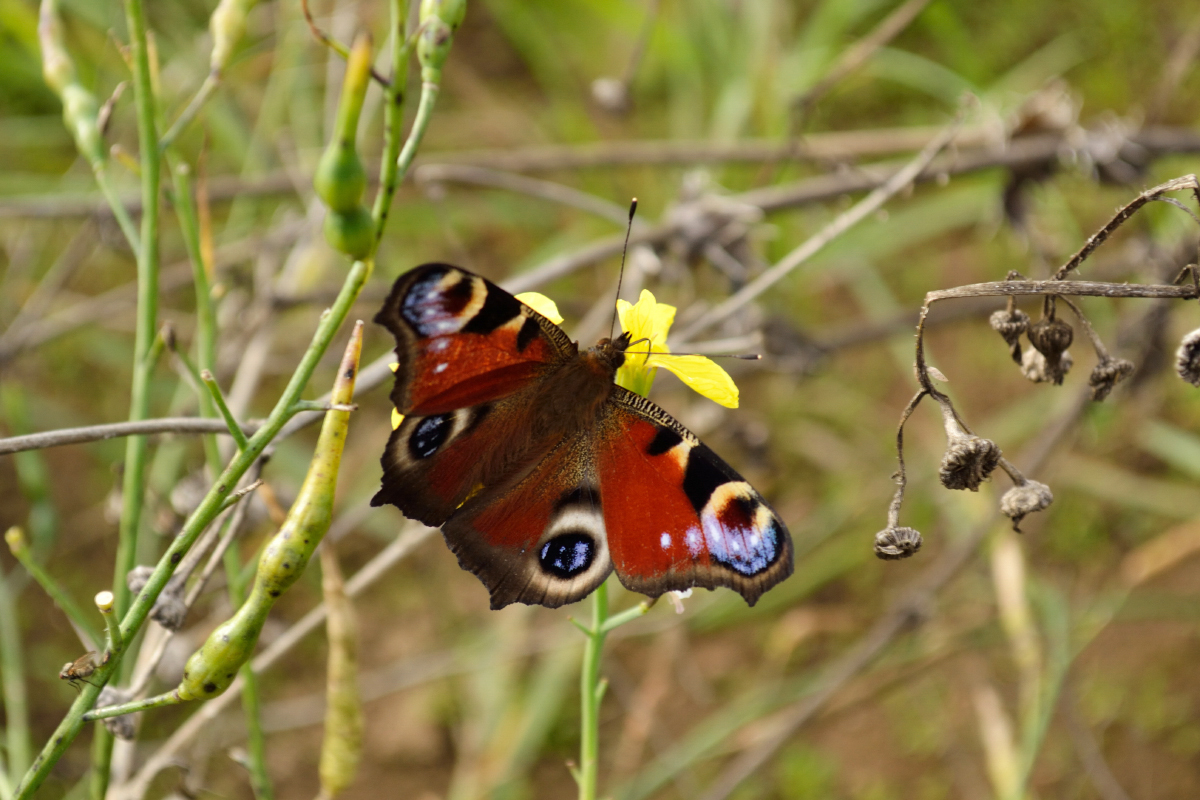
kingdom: Animalia
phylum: Arthropoda
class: Insecta
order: Lepidoptera
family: Nymphalidae
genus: Aglais
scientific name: Aglais io
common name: Peacock
